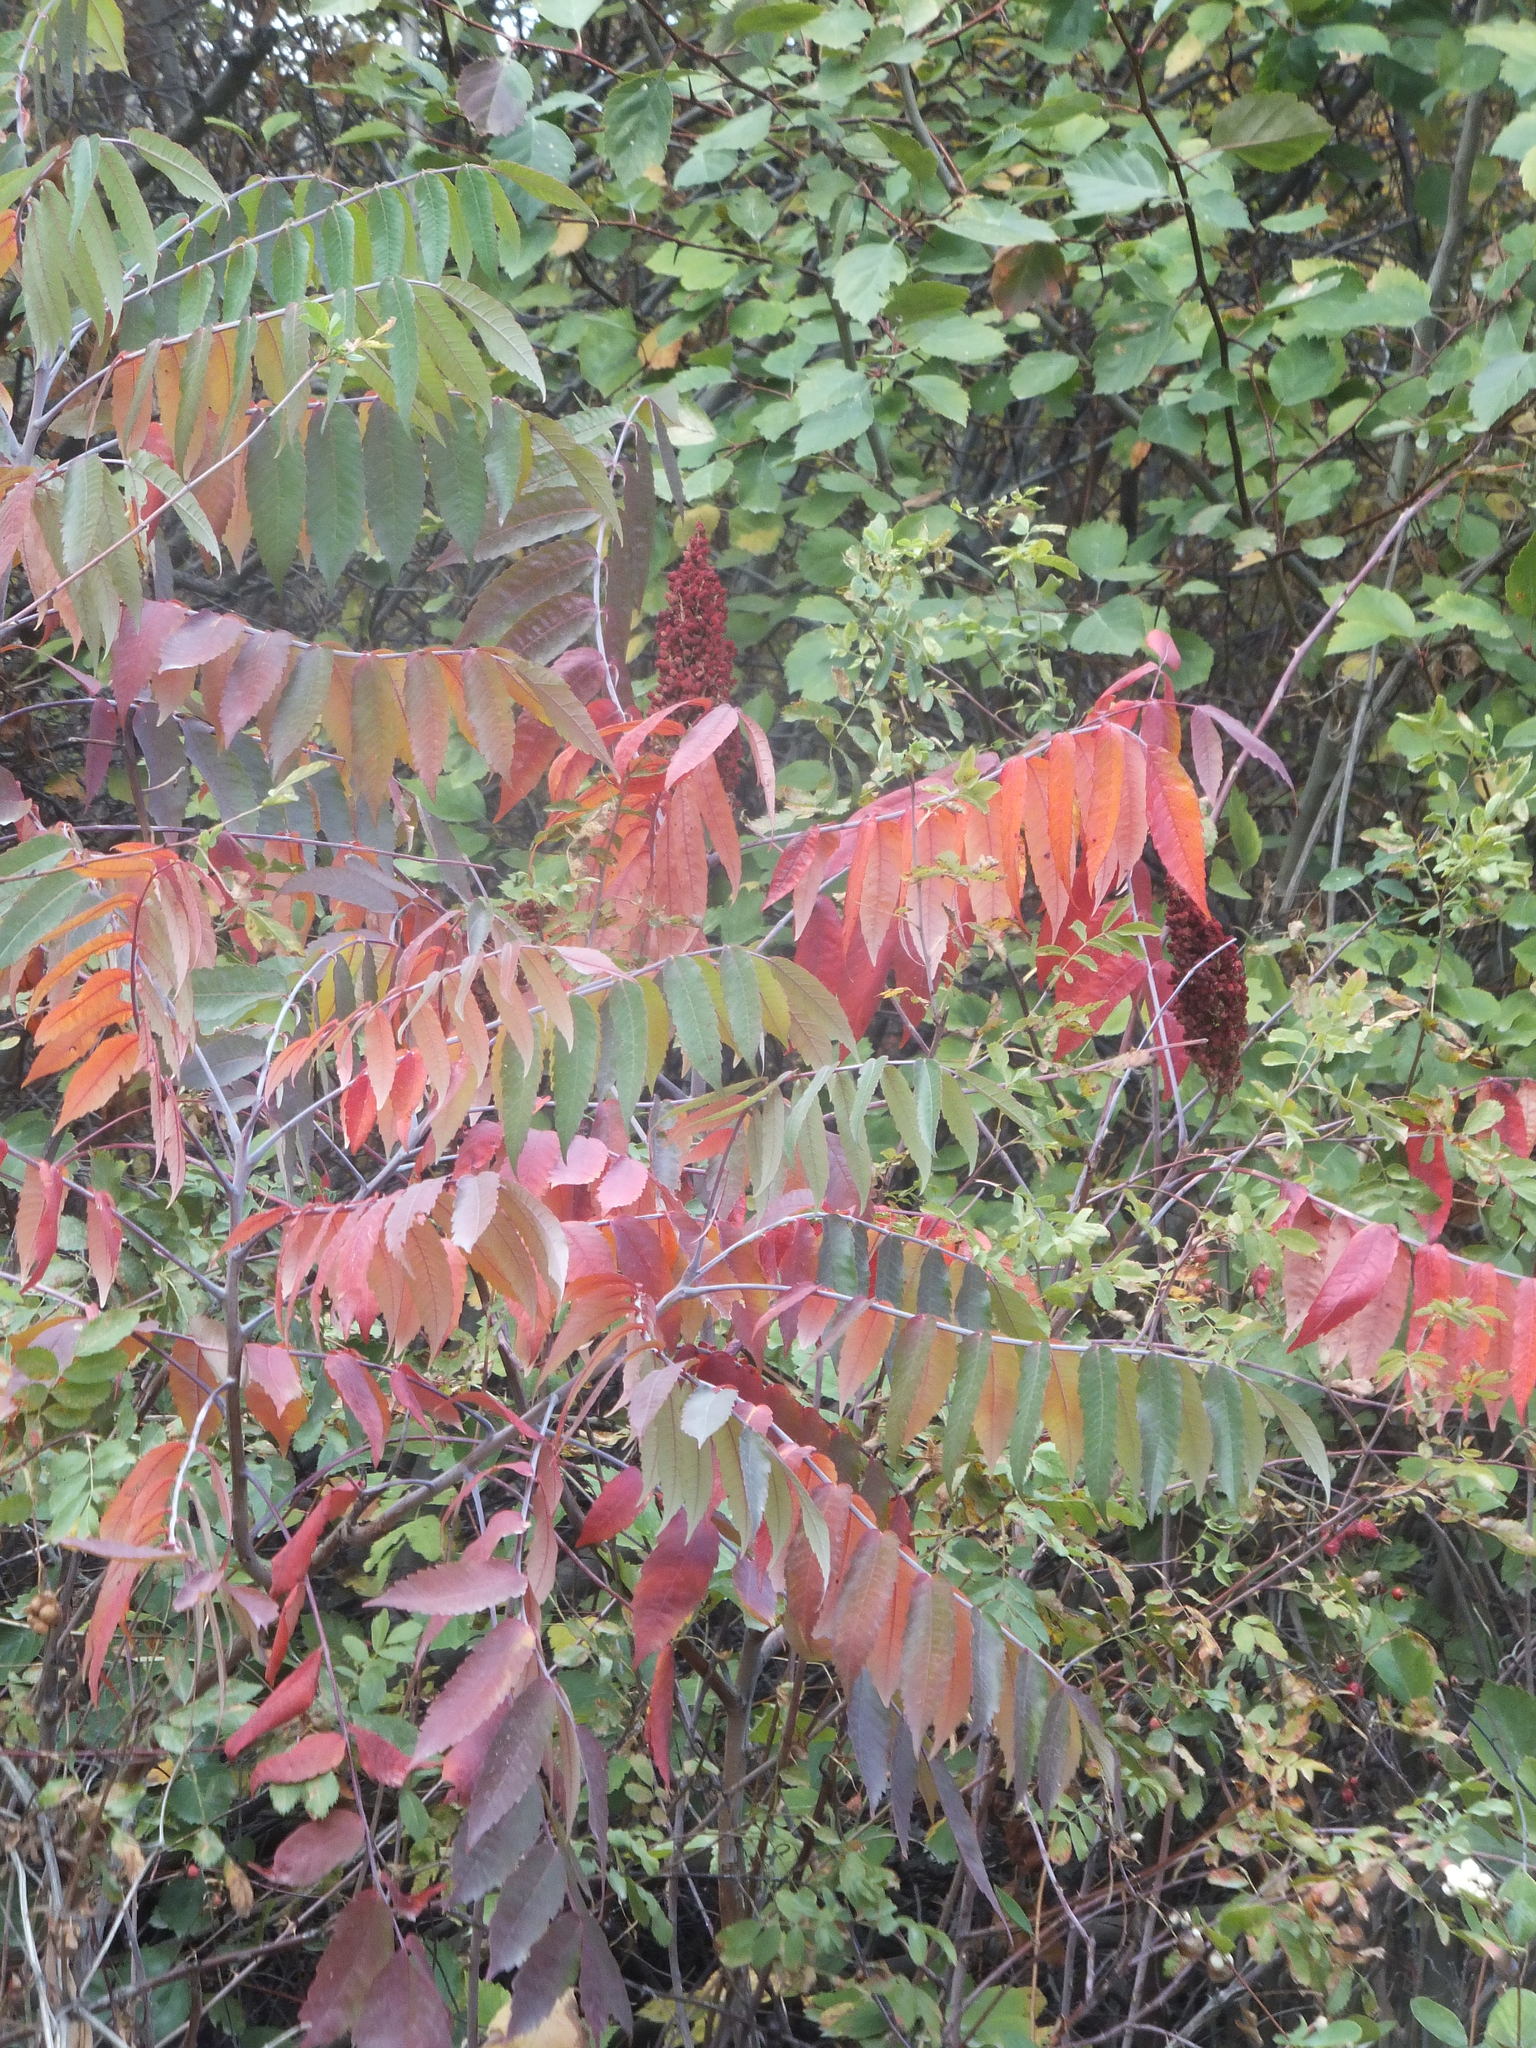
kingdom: Plantae
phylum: Tracheophyta
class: Magnoliopsida
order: Sapindales
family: Anacardiaceae
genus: Rhus
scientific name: Rhus glabra
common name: Scarlet sumac
